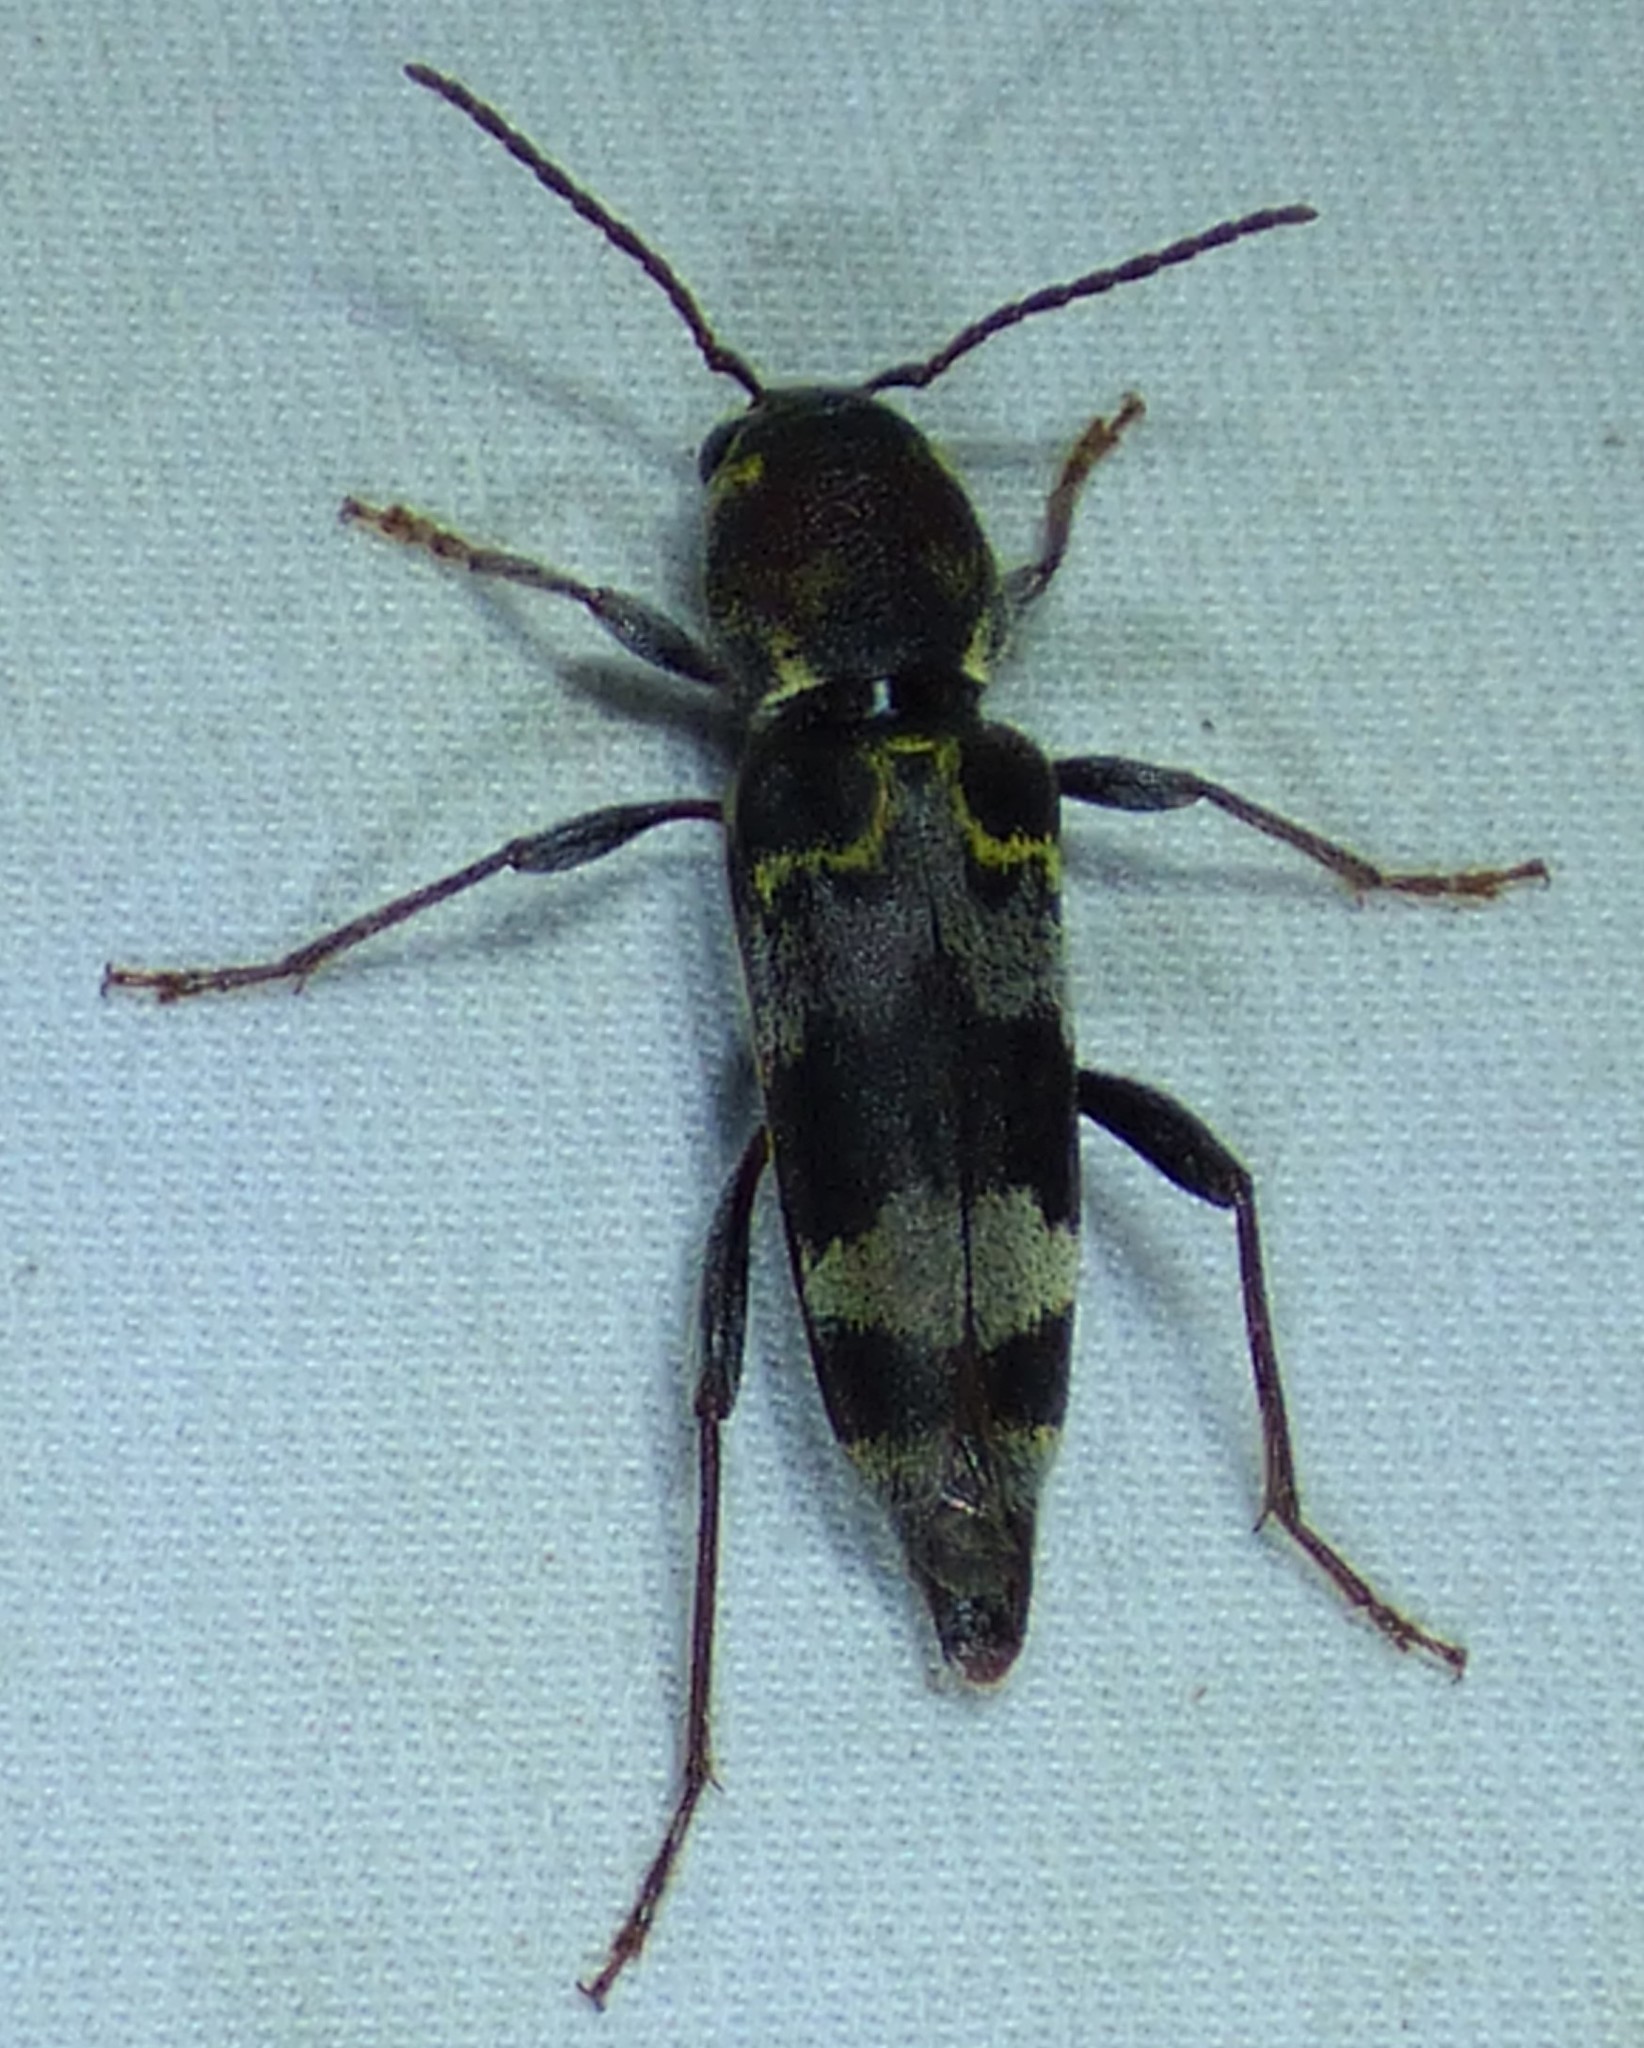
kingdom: Animalia
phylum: Arthropoda
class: Insecta
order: Coleoptera
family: Cerambycidae
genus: Xylotrechus
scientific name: Xylotrechus colonus
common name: Long-horned beetle
